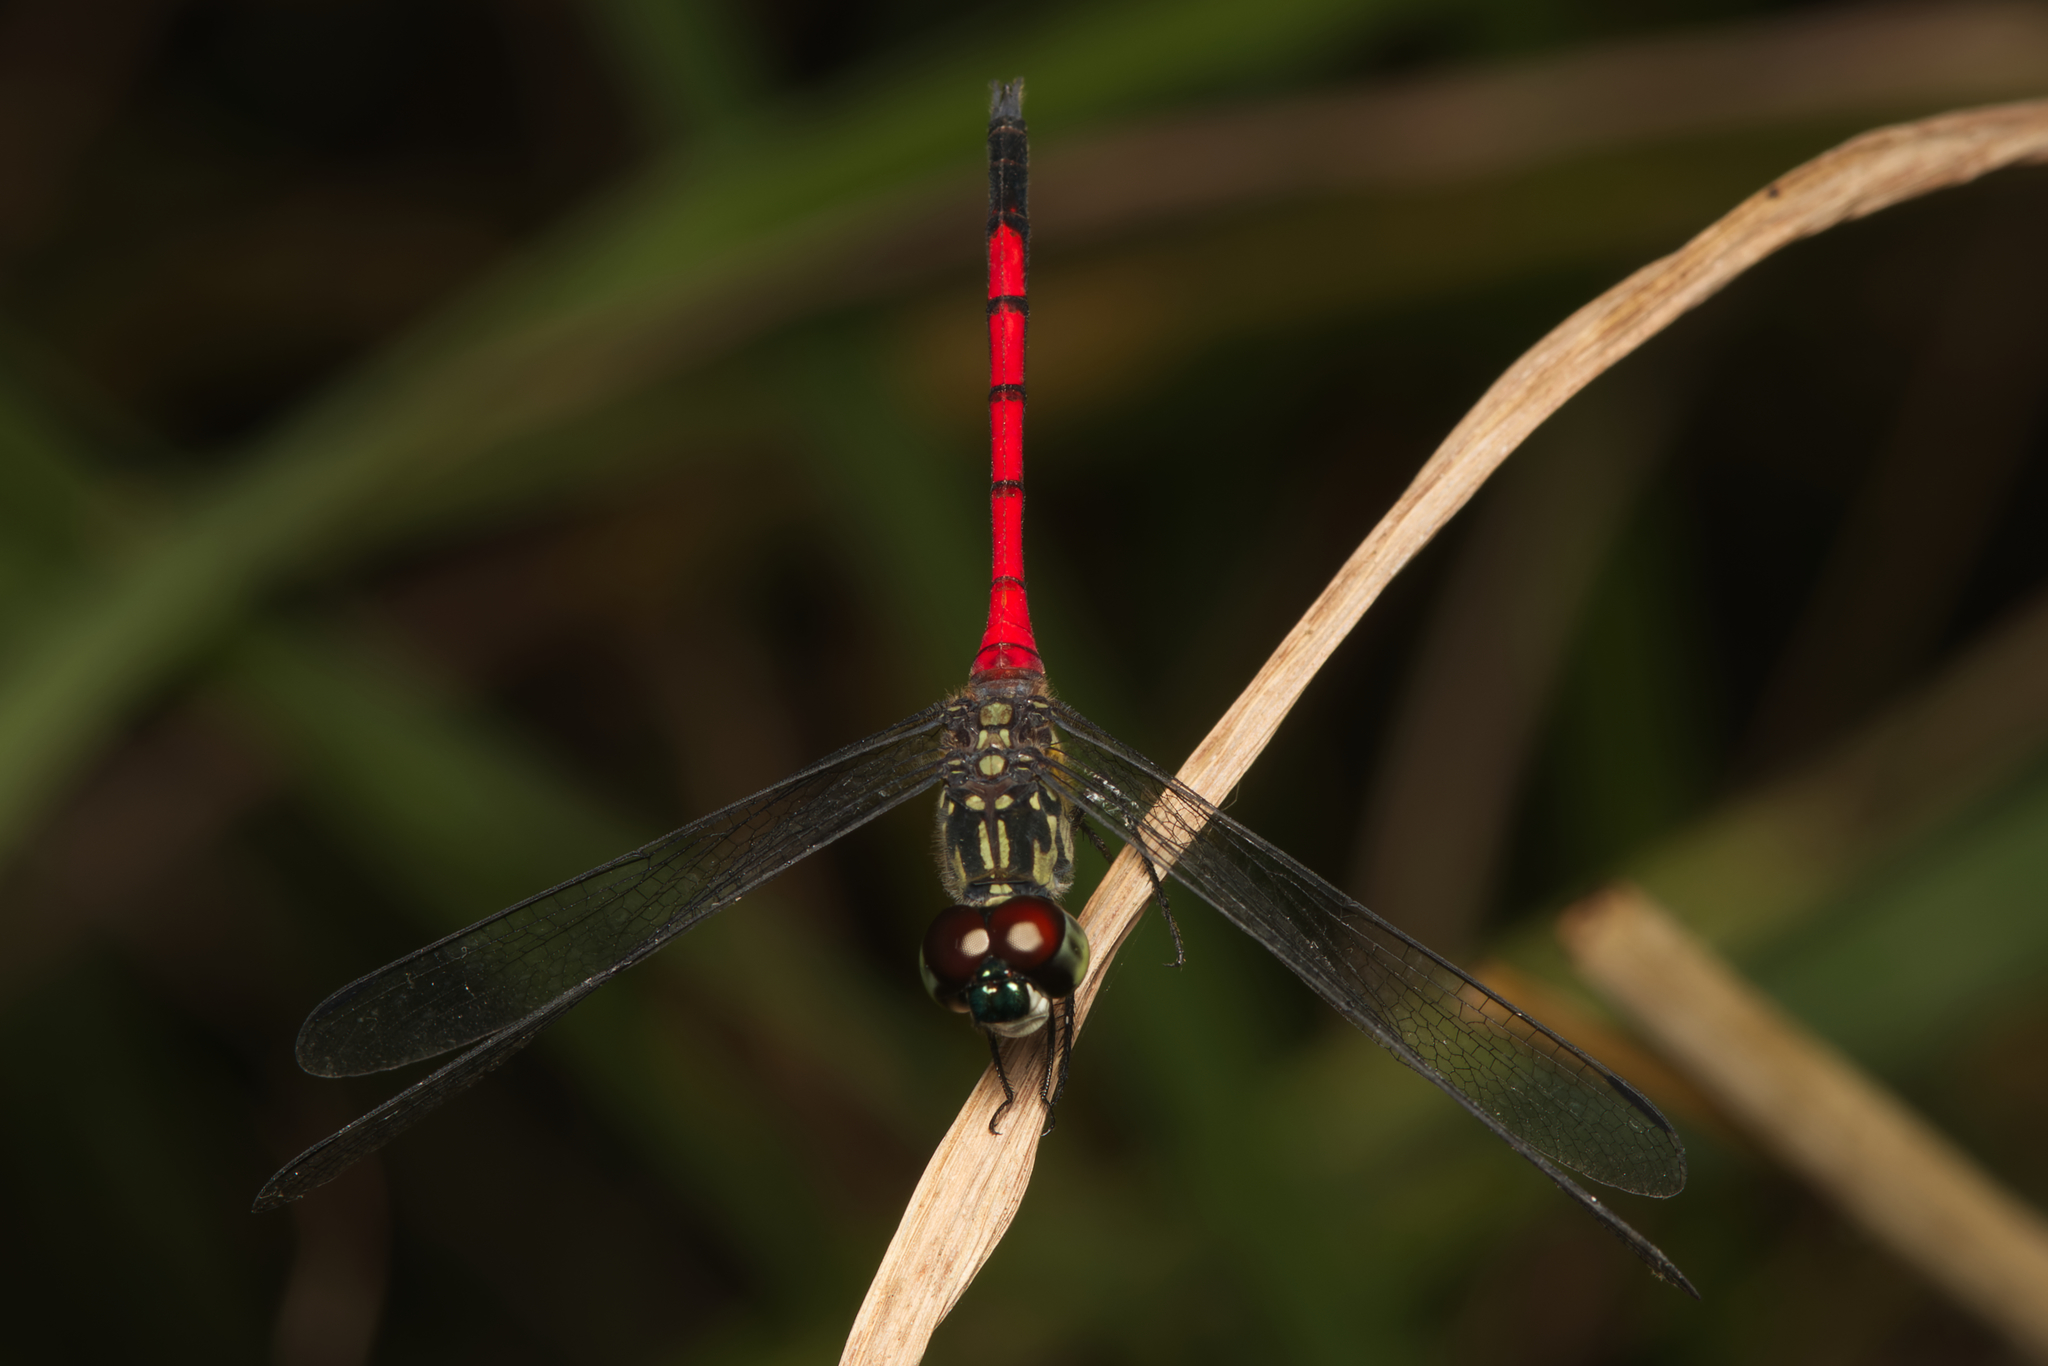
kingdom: Animalia
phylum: Arthropoda
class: Insecta
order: Odonata
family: Libellulidae
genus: Agrionoptera
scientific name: Agrionoptera insignis
